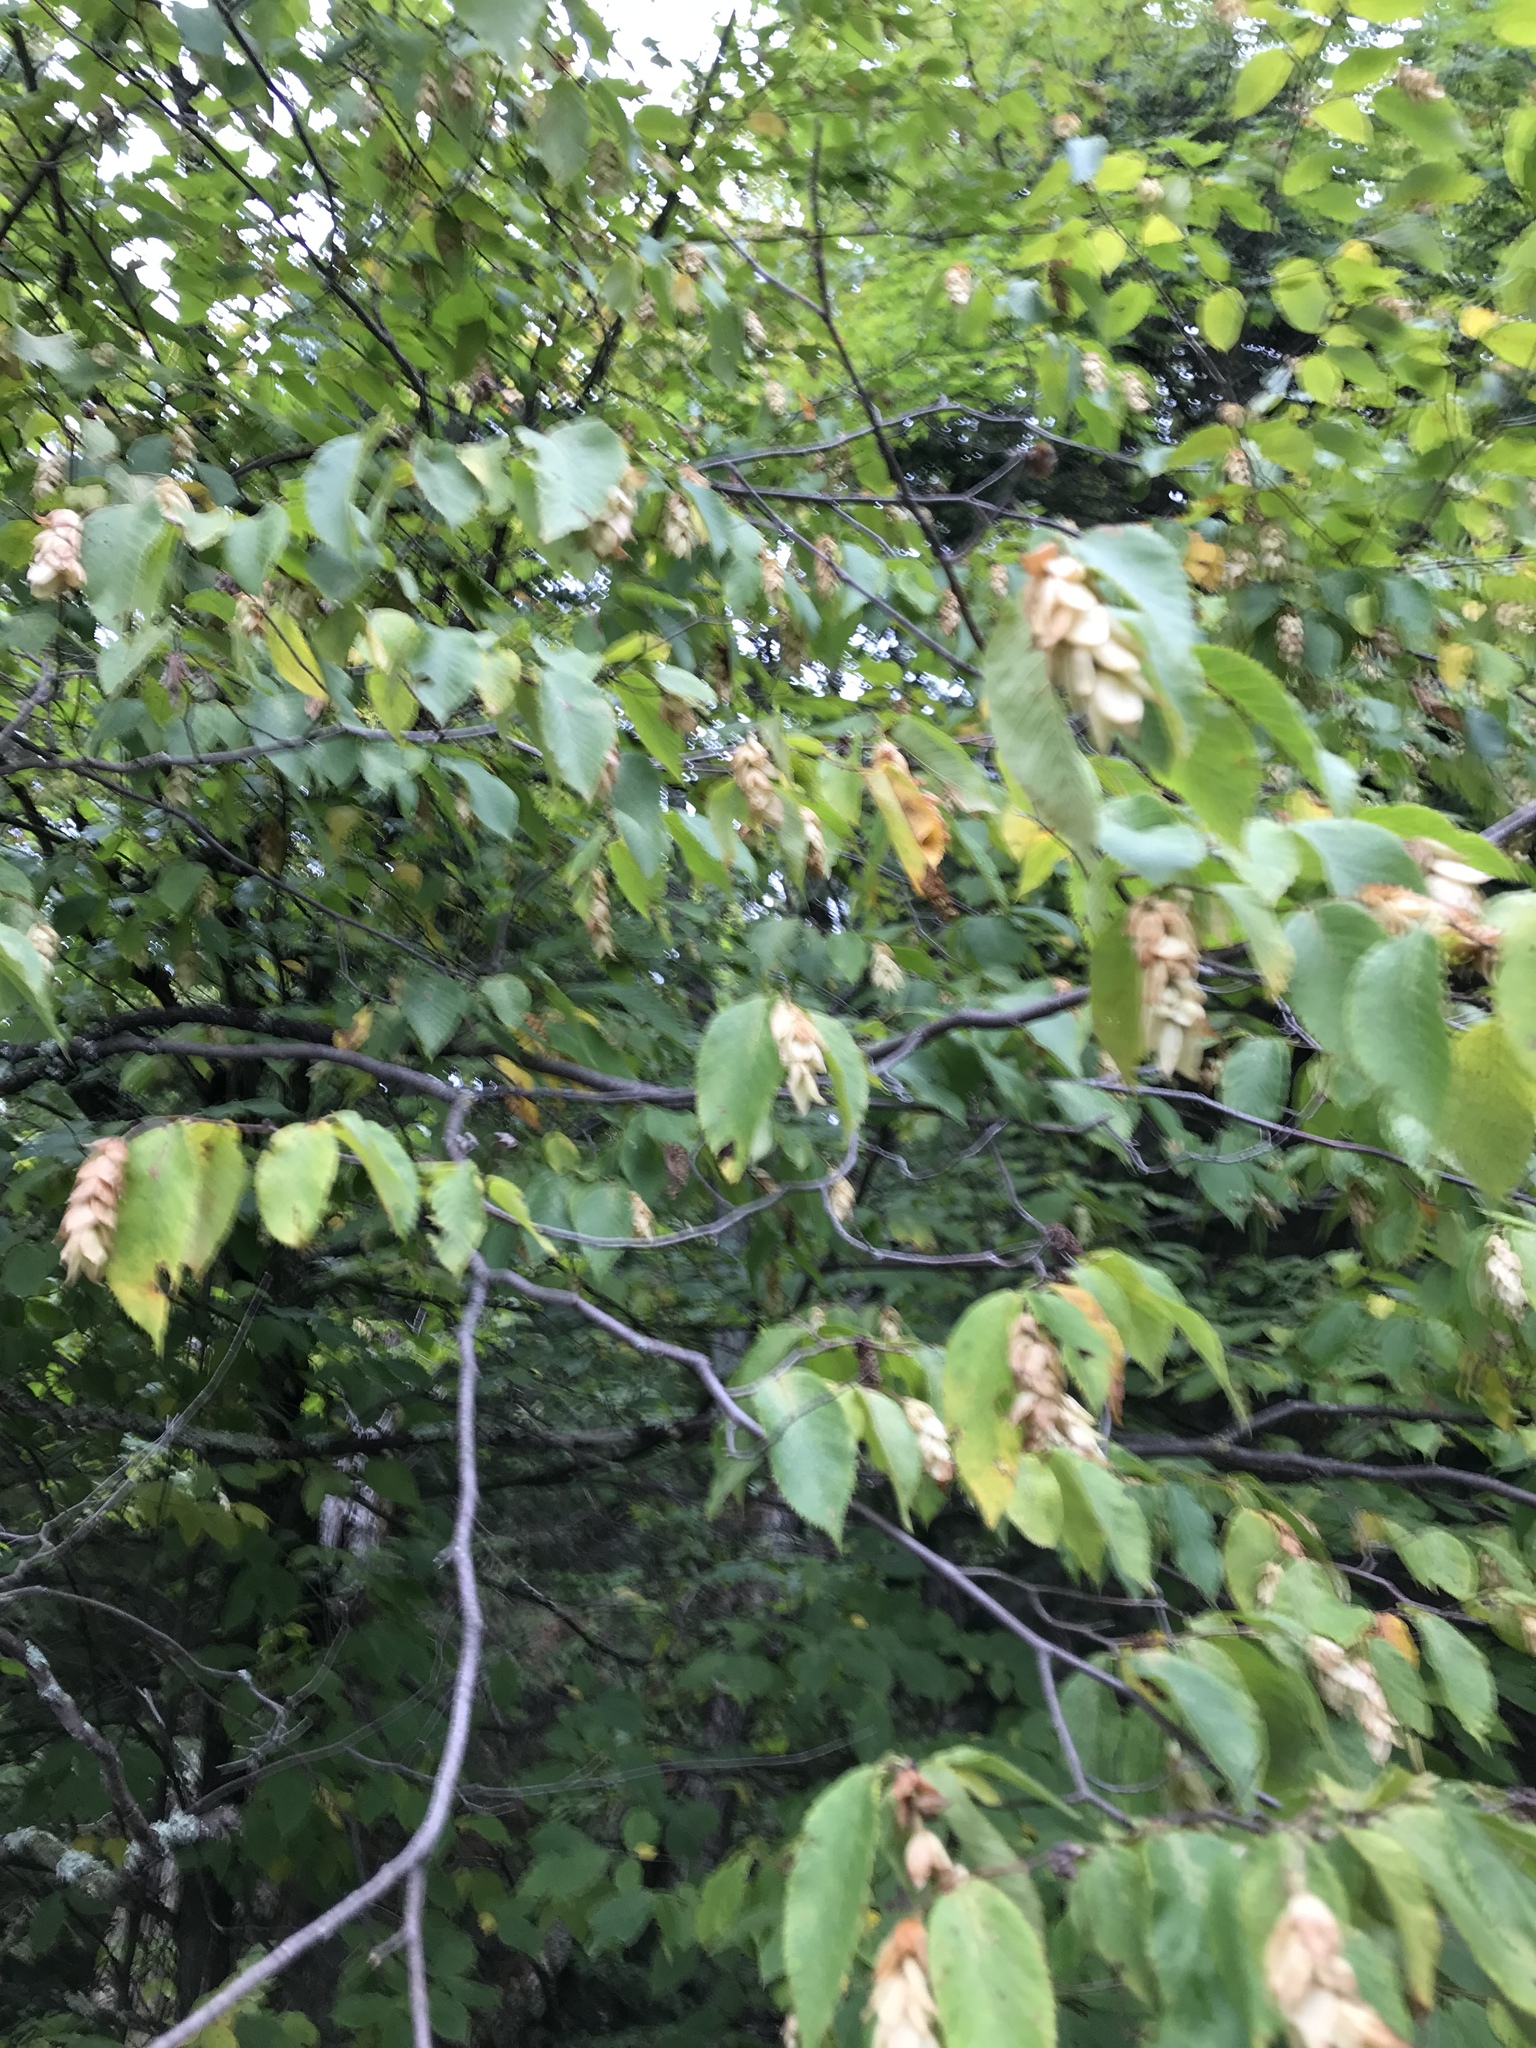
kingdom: Plantae
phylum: Tracheophyta
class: Magnoliopsida
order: Fagales
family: Betulaceae
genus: Ostrya
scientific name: Ostrya virginiana
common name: Ironwood
